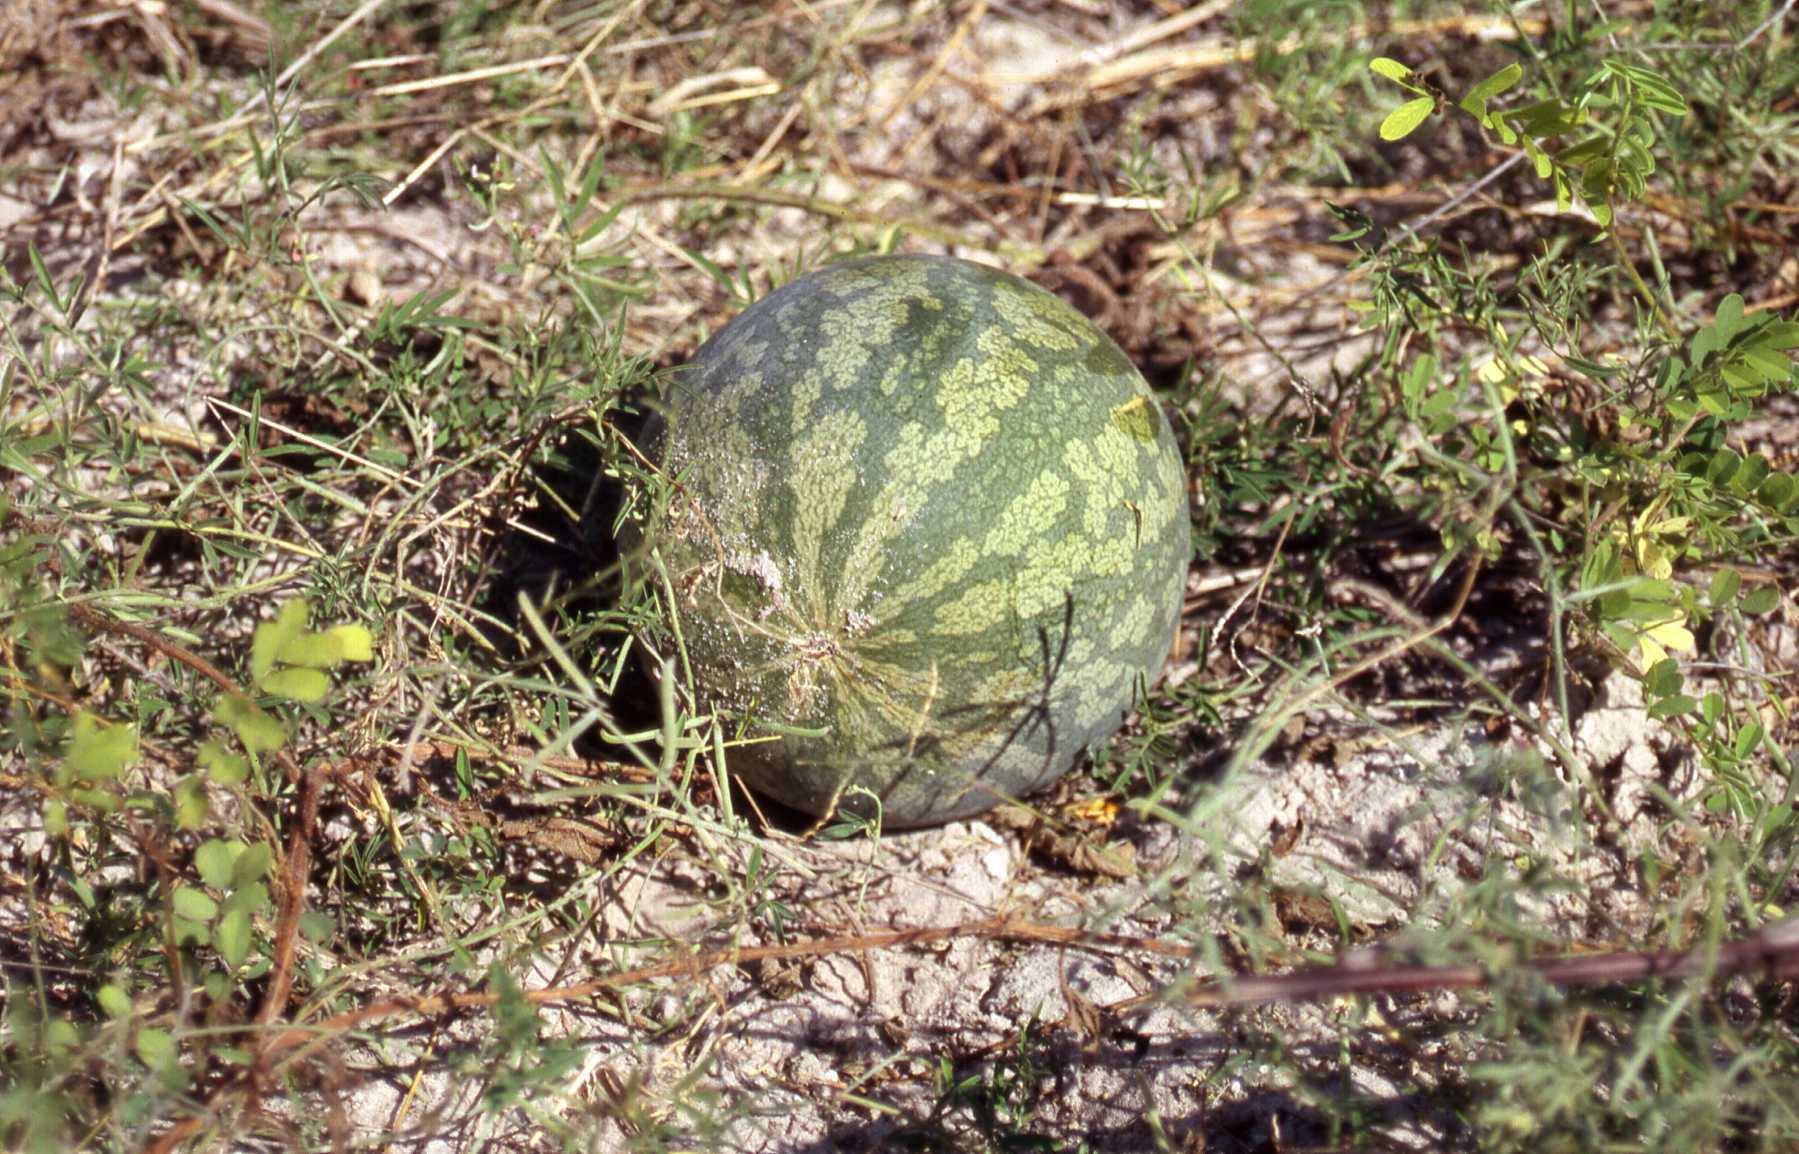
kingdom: Plantae
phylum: Tracheophyta
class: Magnoliopsida
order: Cucurbitales
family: Cucurbitaceae
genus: Citrullus
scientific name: Citrullus amarus
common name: Fodder-melon
